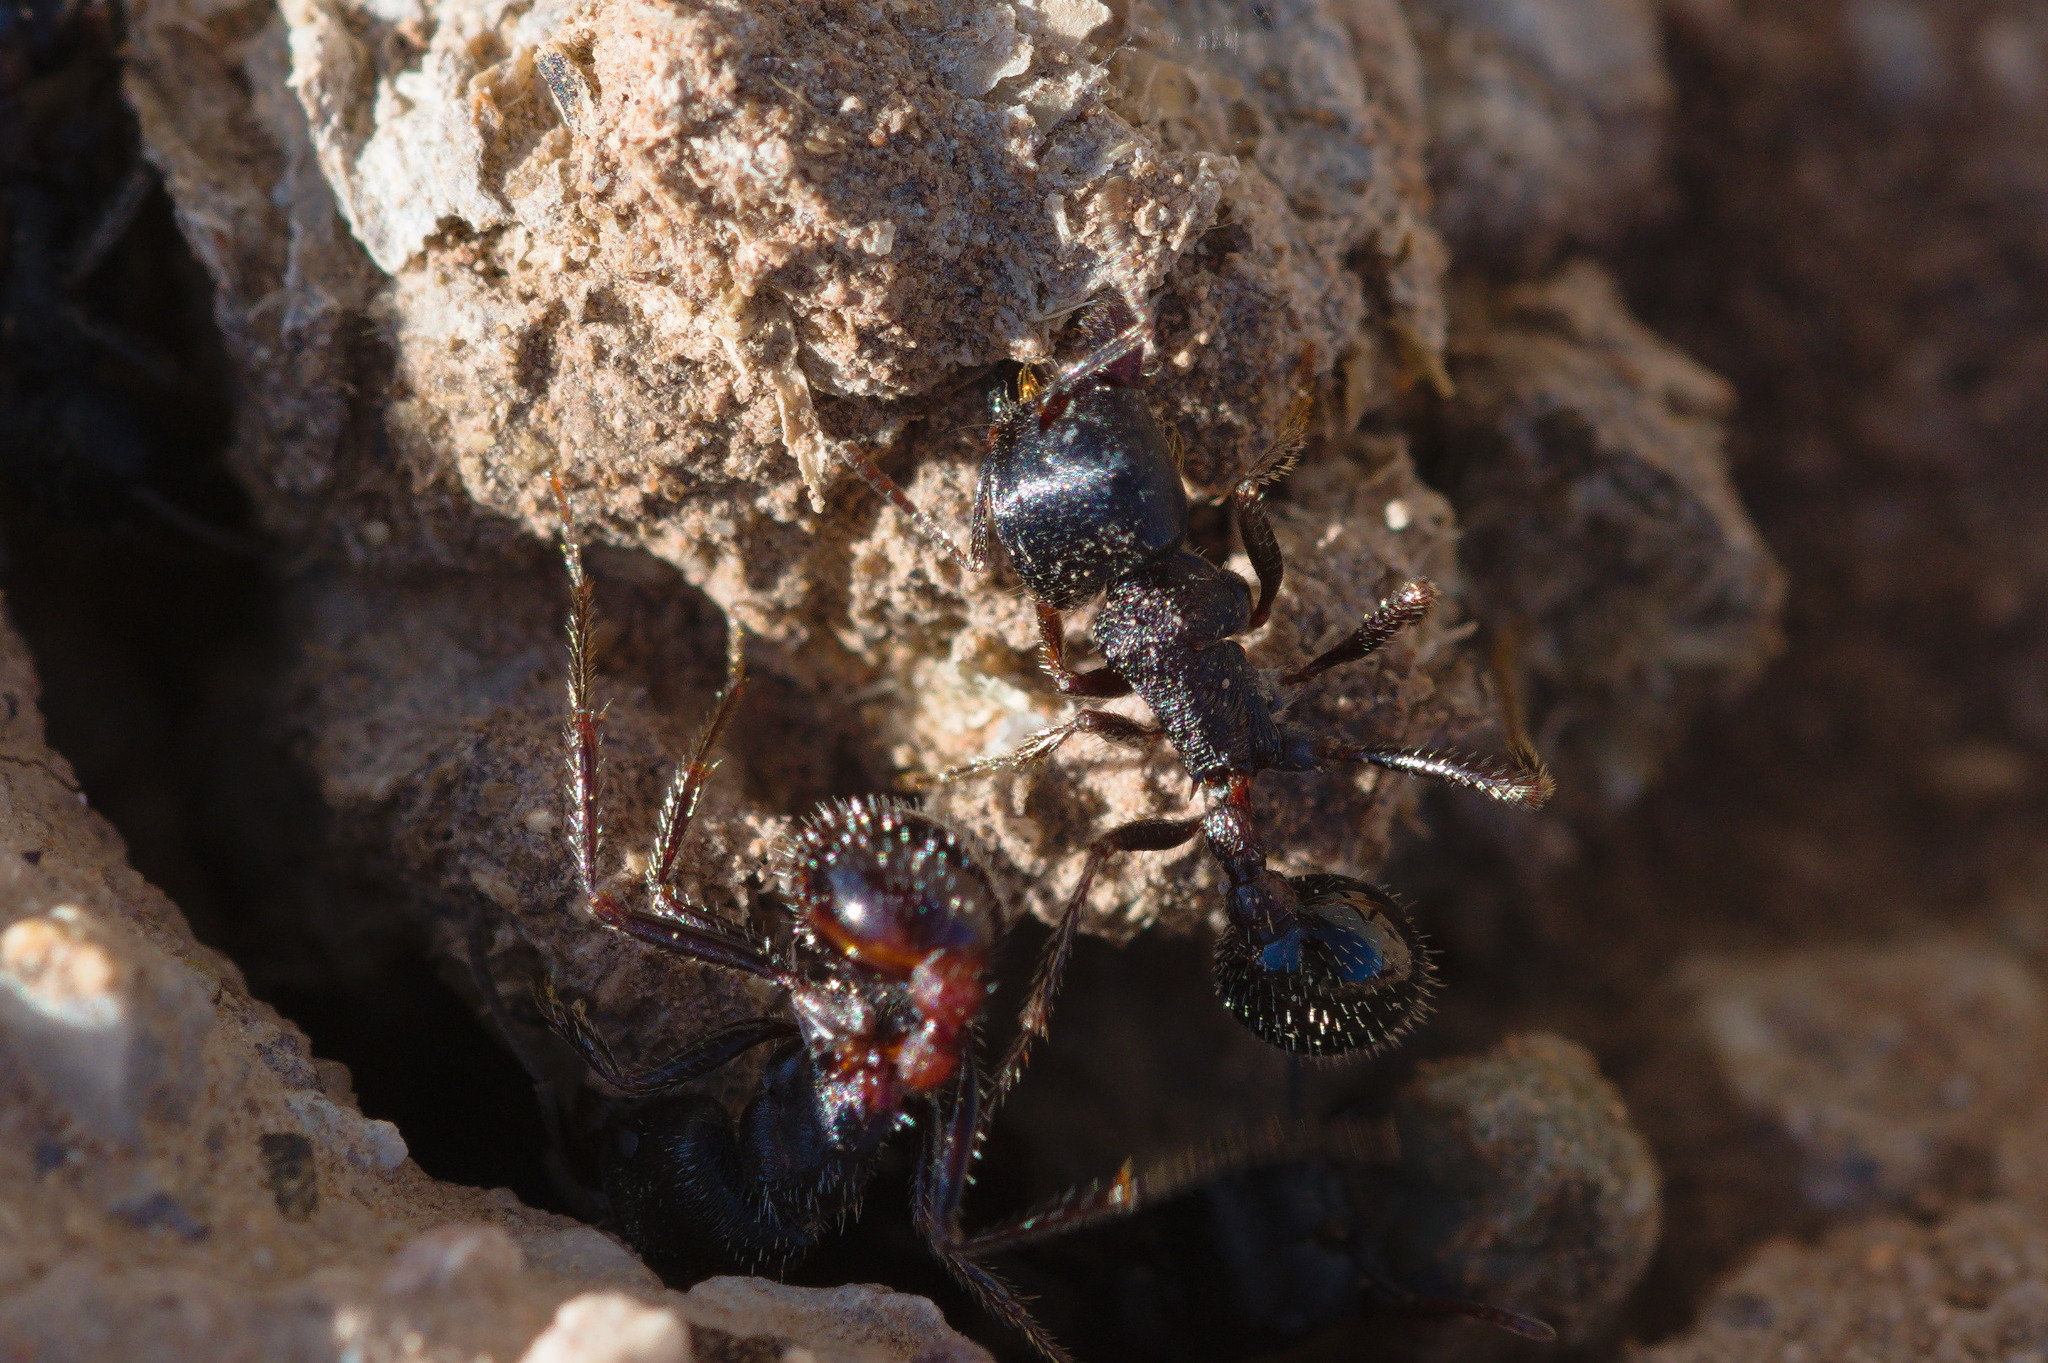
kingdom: Animalia
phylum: Arthropoda
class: Insecta
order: Hymenoptera
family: Formicidae
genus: Pogonomyrmex
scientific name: Pogonomyrmex rugosus
